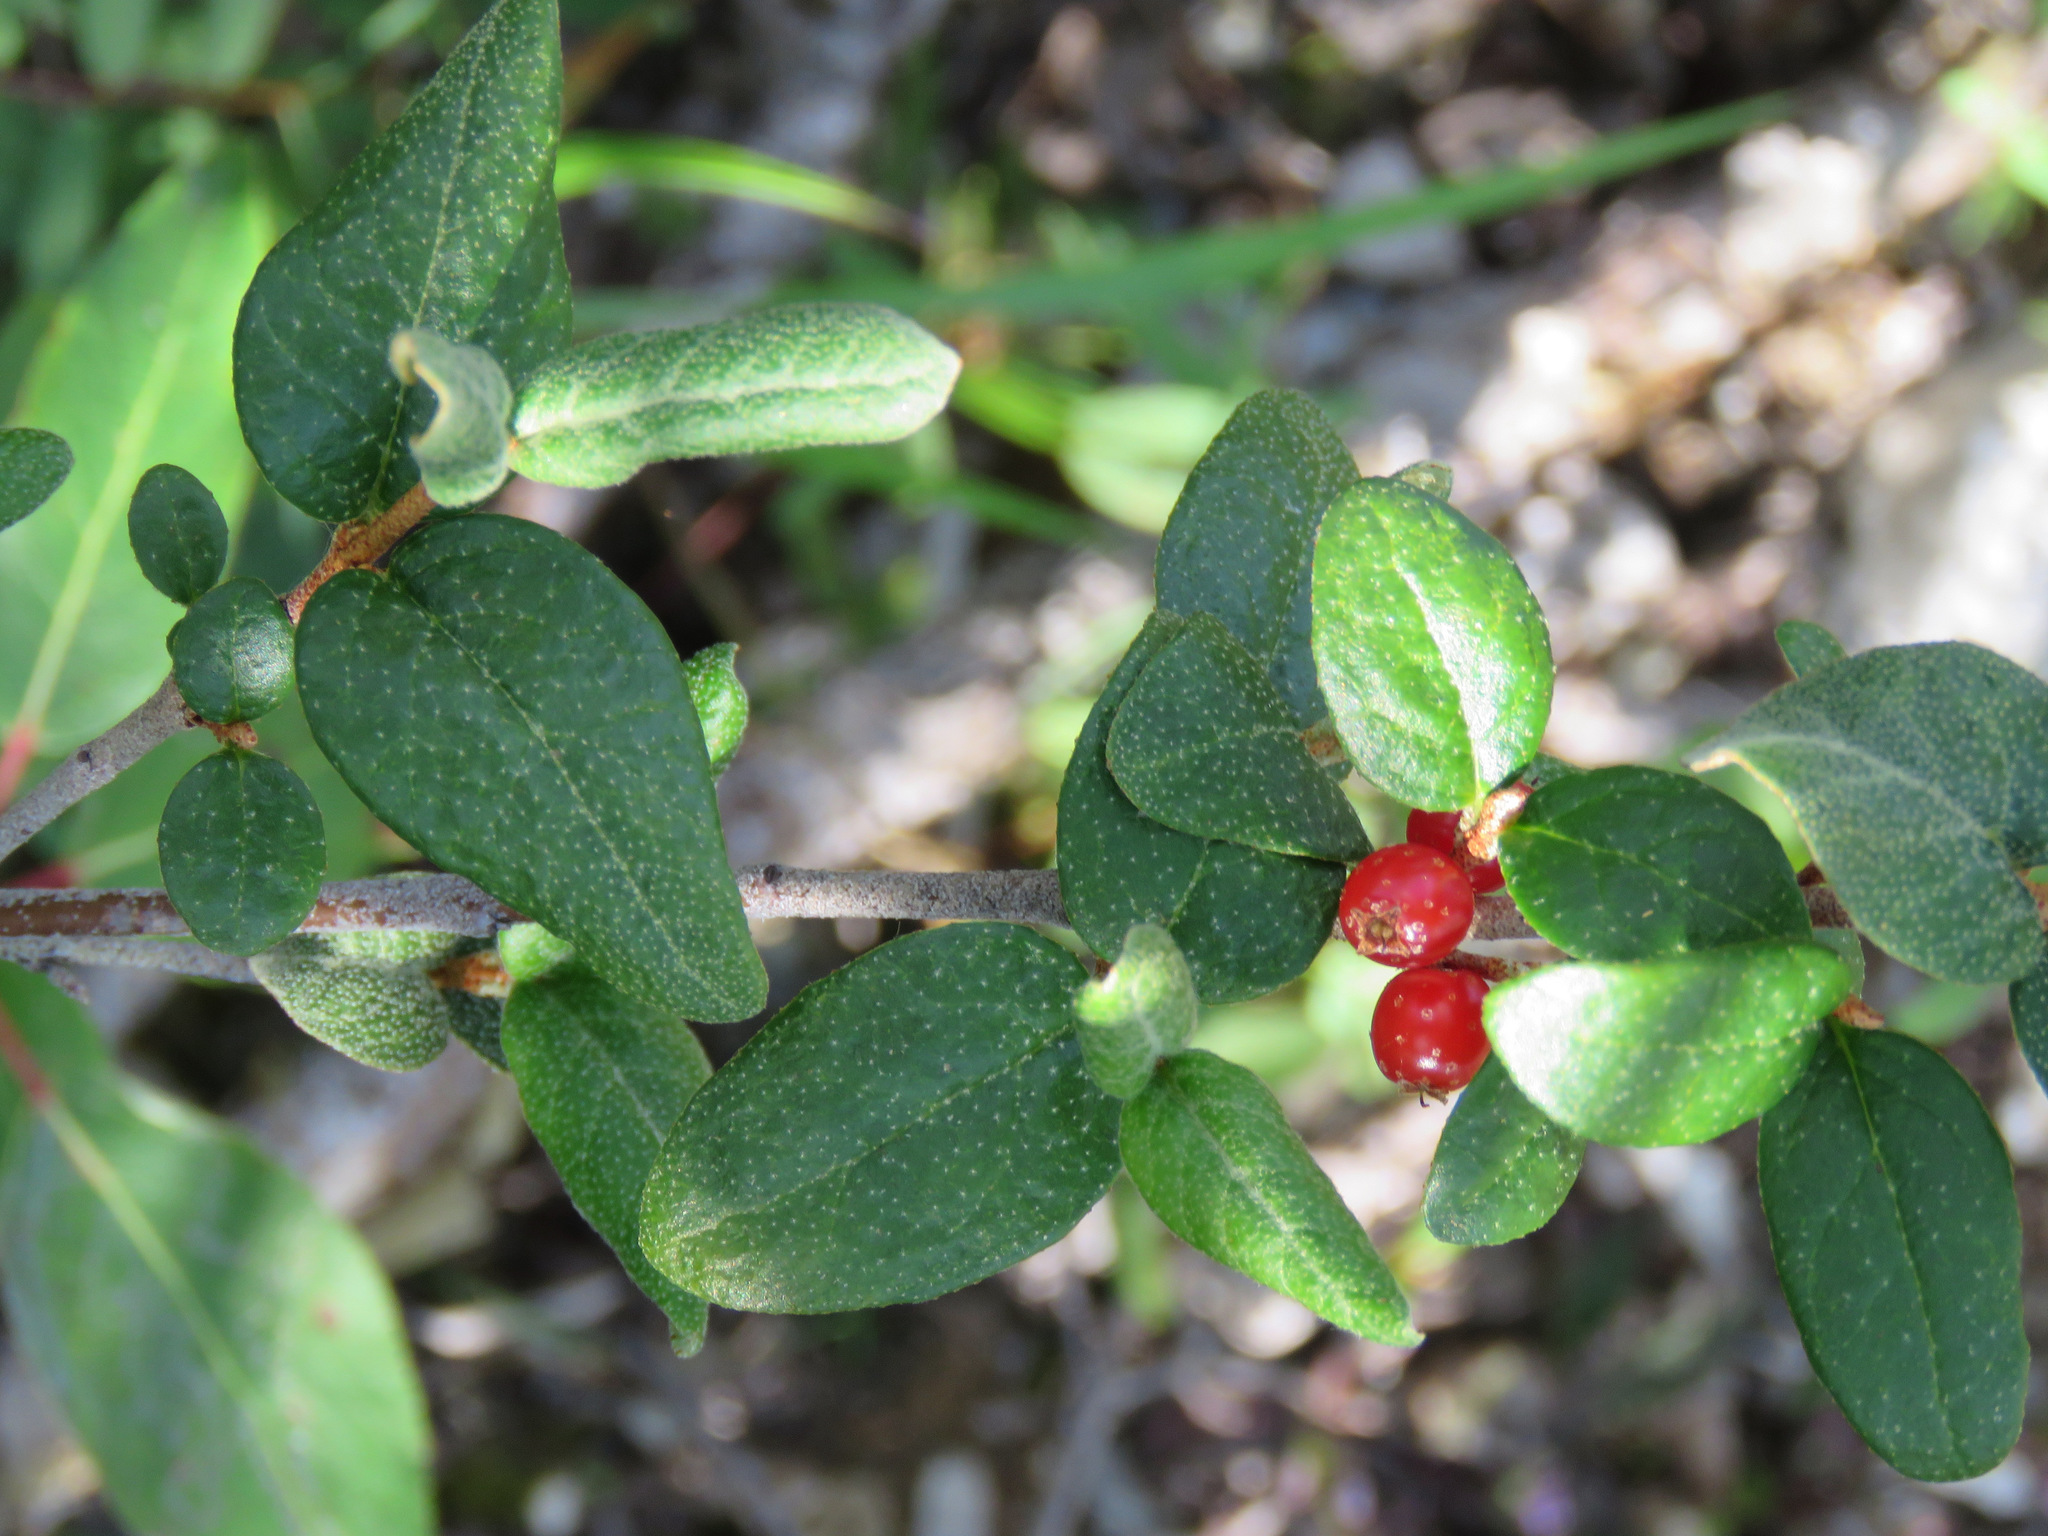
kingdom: Plantae
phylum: Tracheophyta
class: Magnoliopsida
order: Rosales
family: Elaeagnaceae
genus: Shepherdia
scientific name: Shepherdia canadensis
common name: Soapberry
